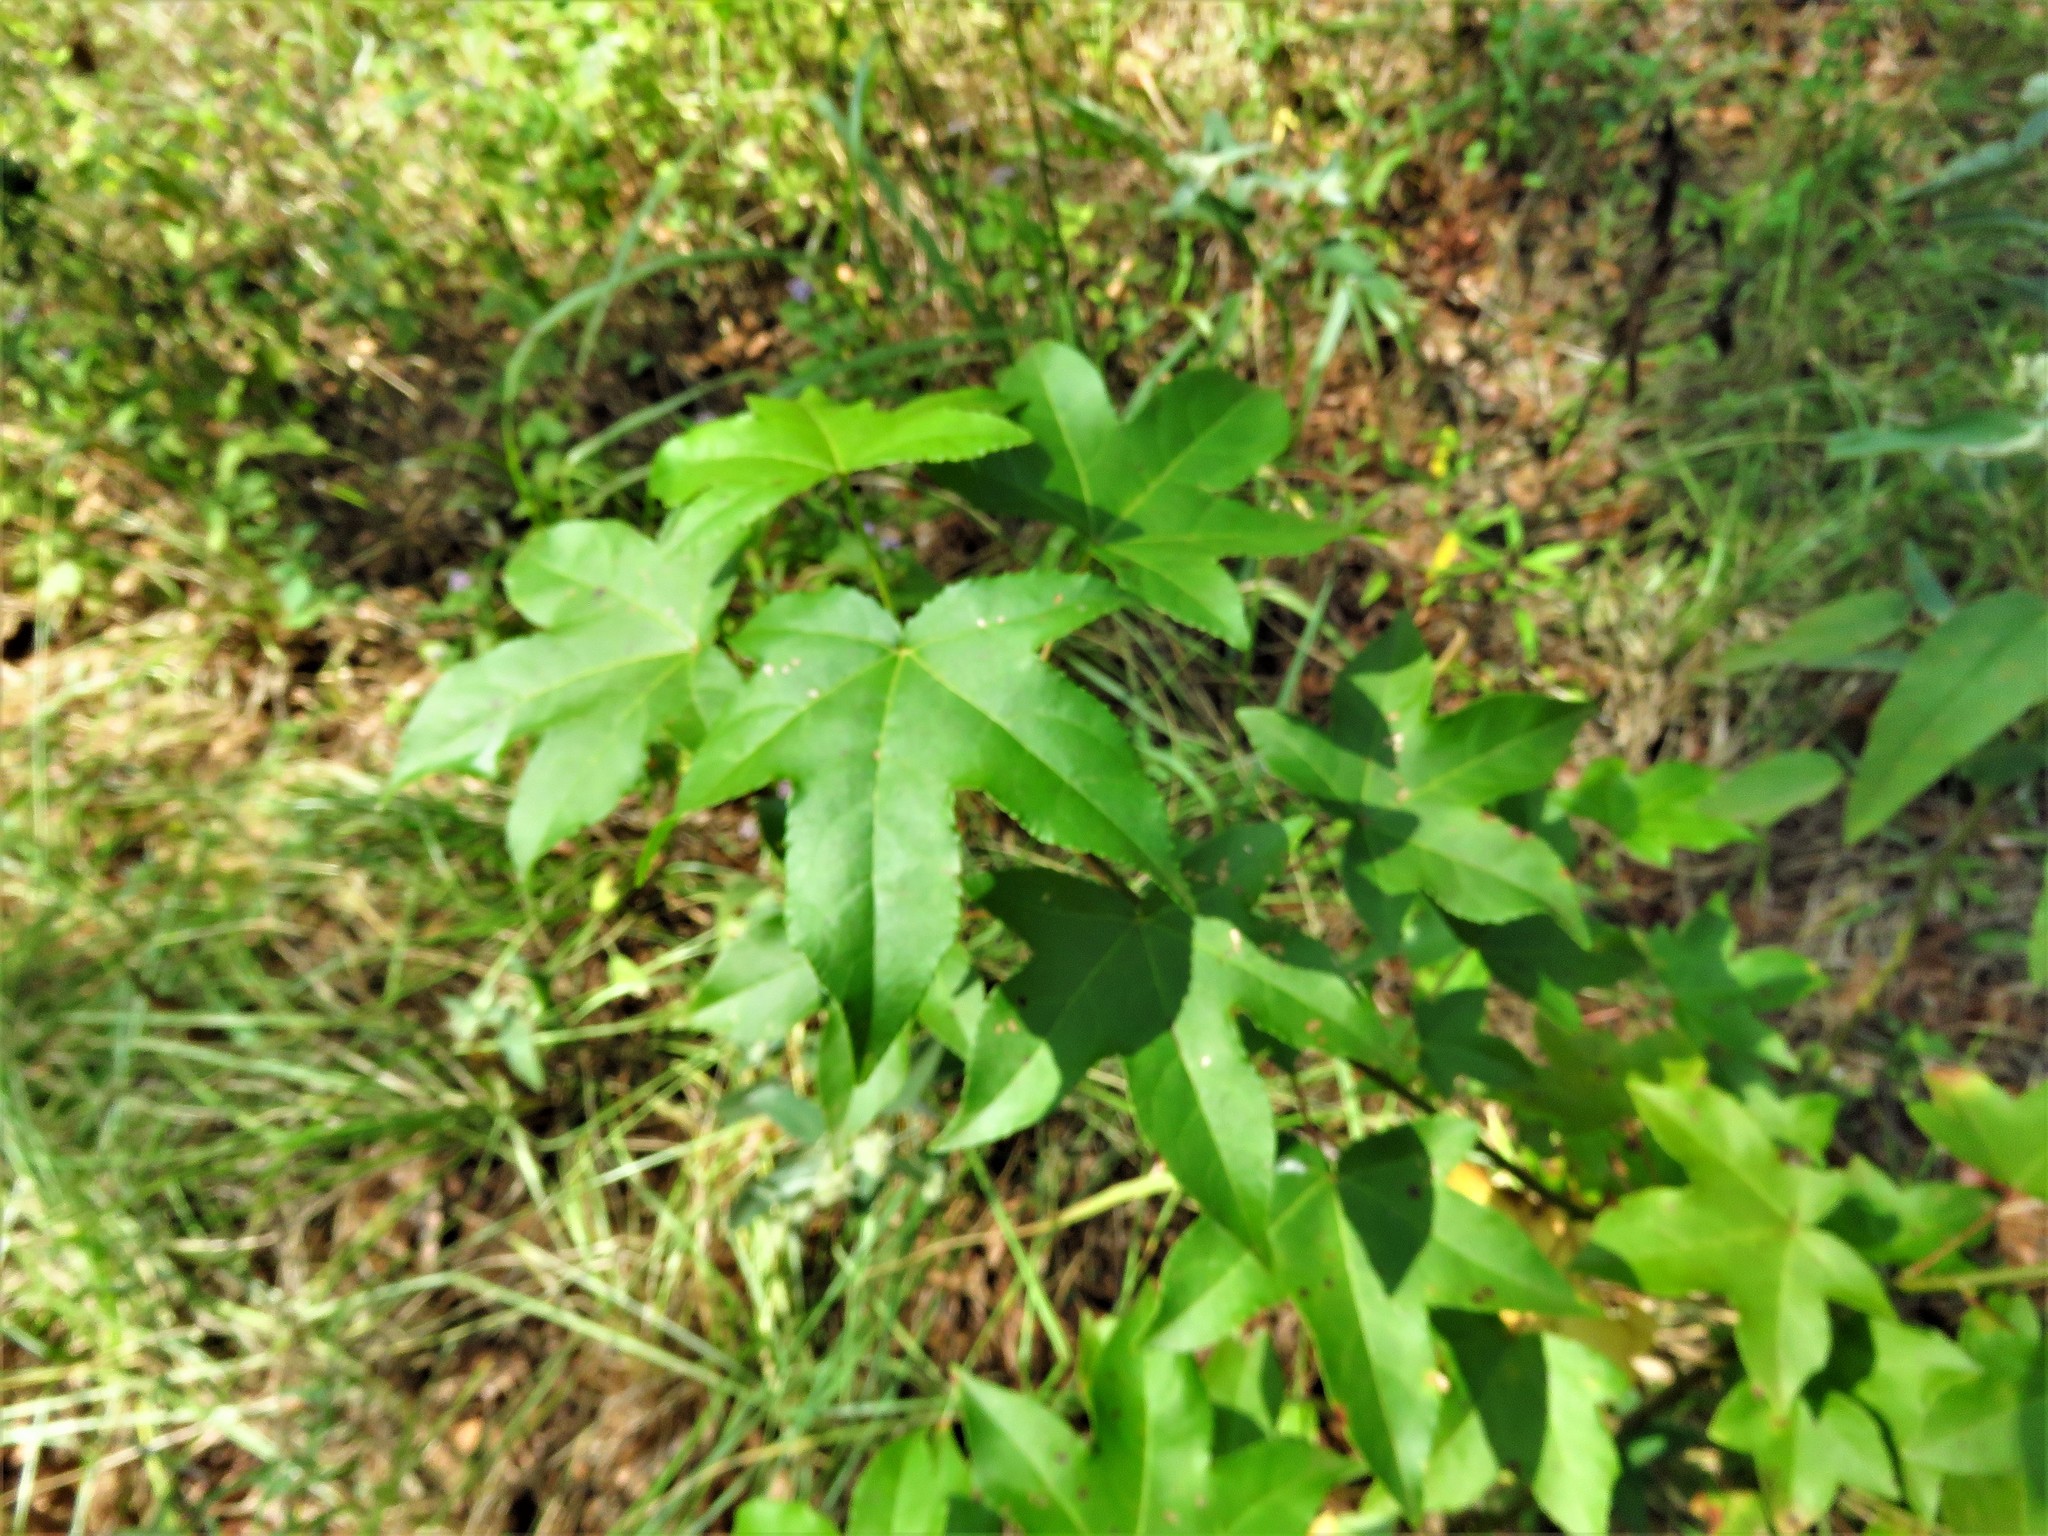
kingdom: Plantae
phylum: Tracheophyta
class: Magnoliopsida
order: Saxifragales
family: Altingiaceae
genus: Liquidambar
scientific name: Liquidambar styraciflua
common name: Sweet gum
